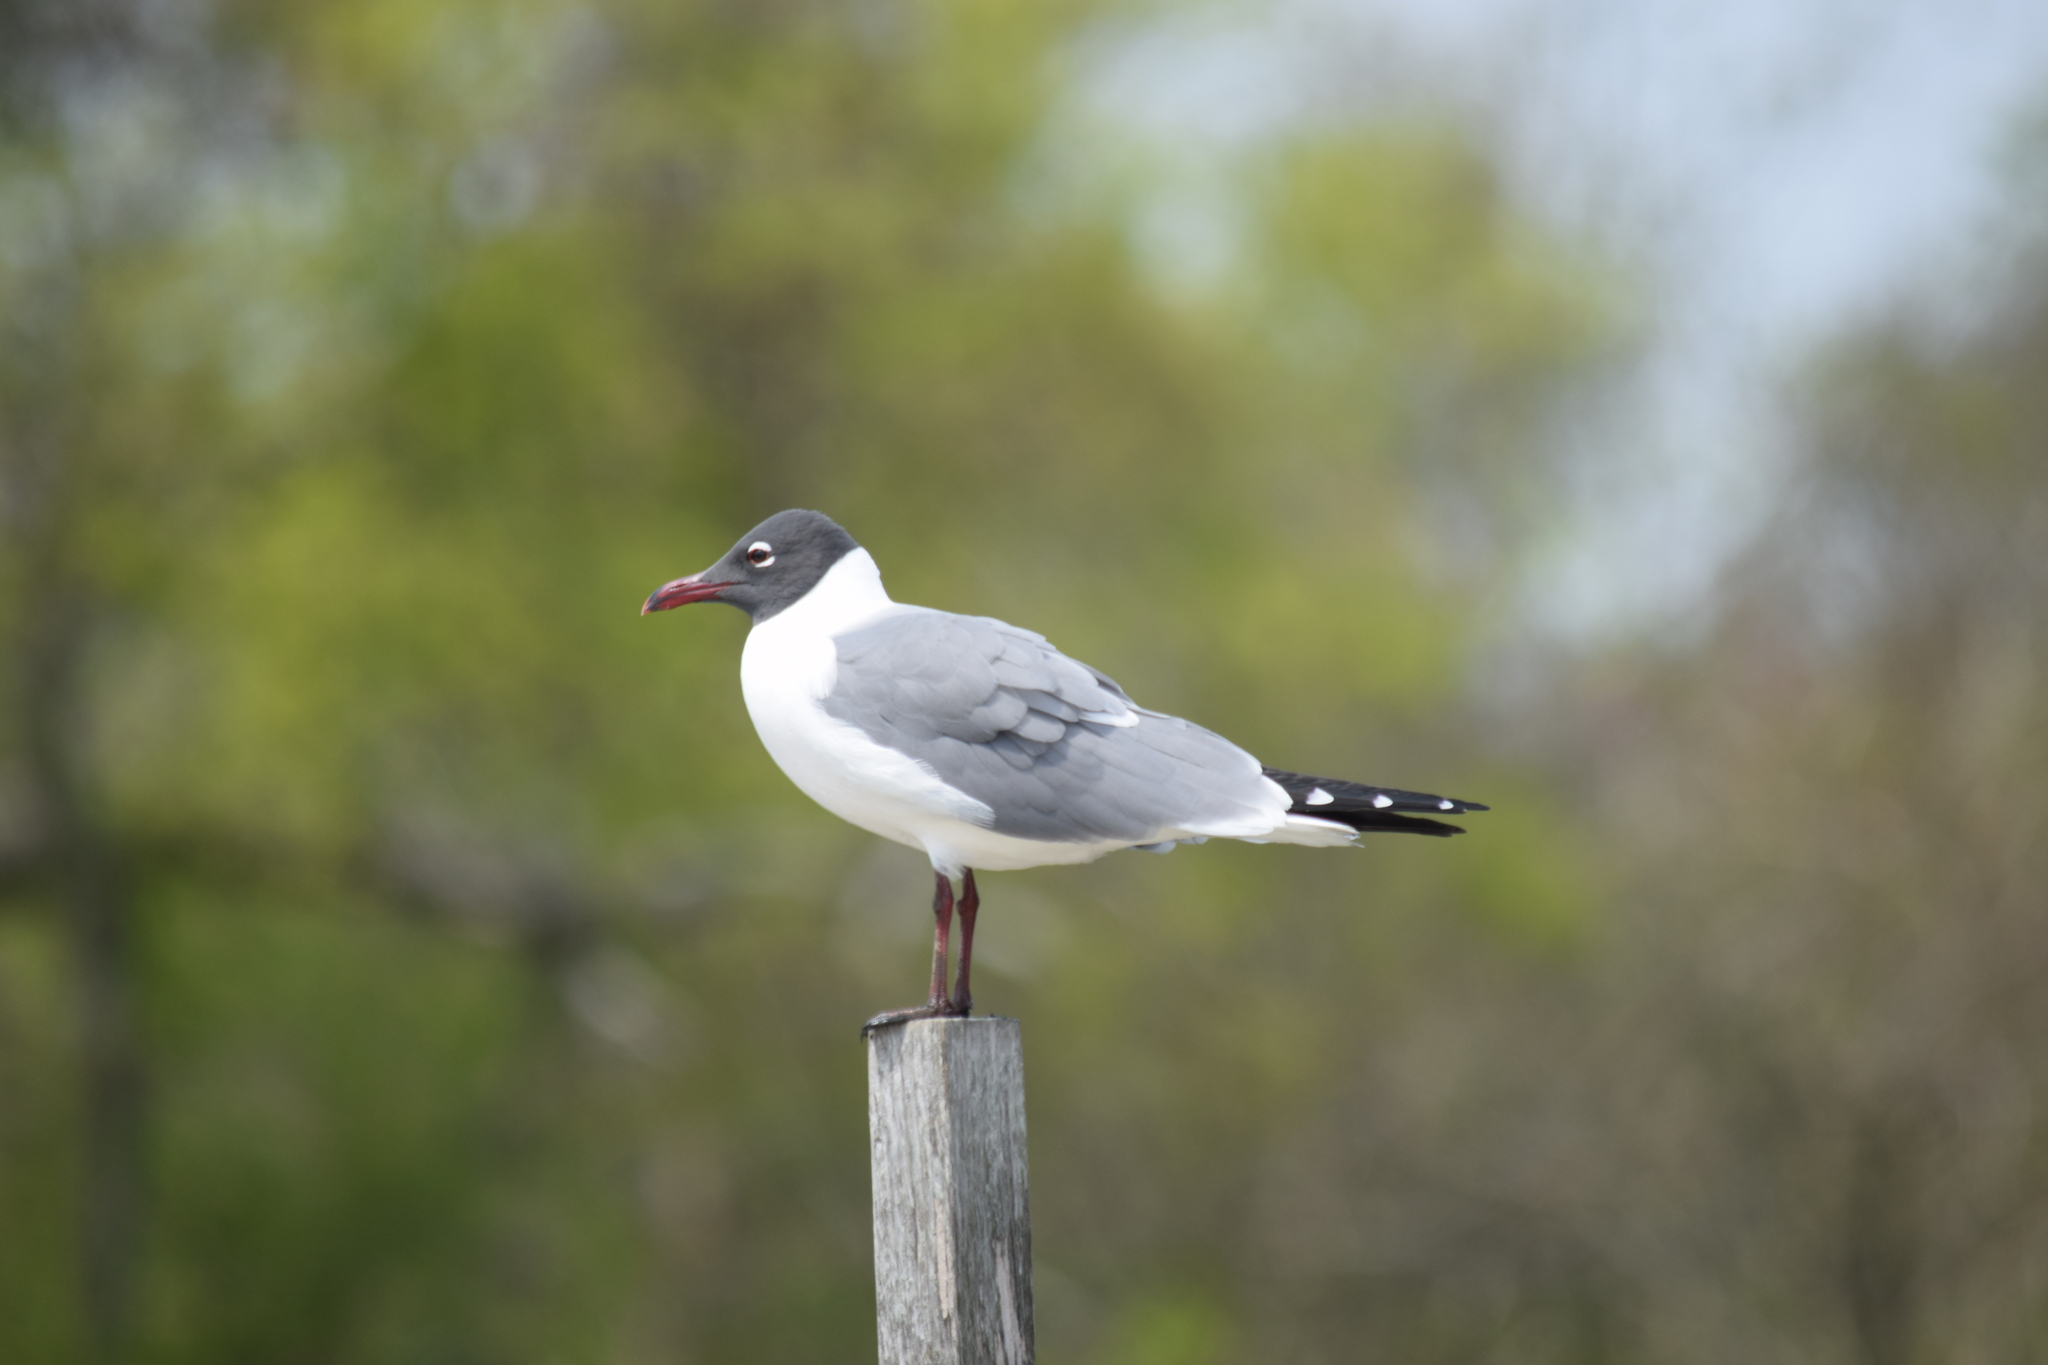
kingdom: Animalia
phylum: Chordata
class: Aves
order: Charadriiformes
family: Laridae
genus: Leucophaeus
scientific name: Leucophaeus atricilla
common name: Laughing gull
